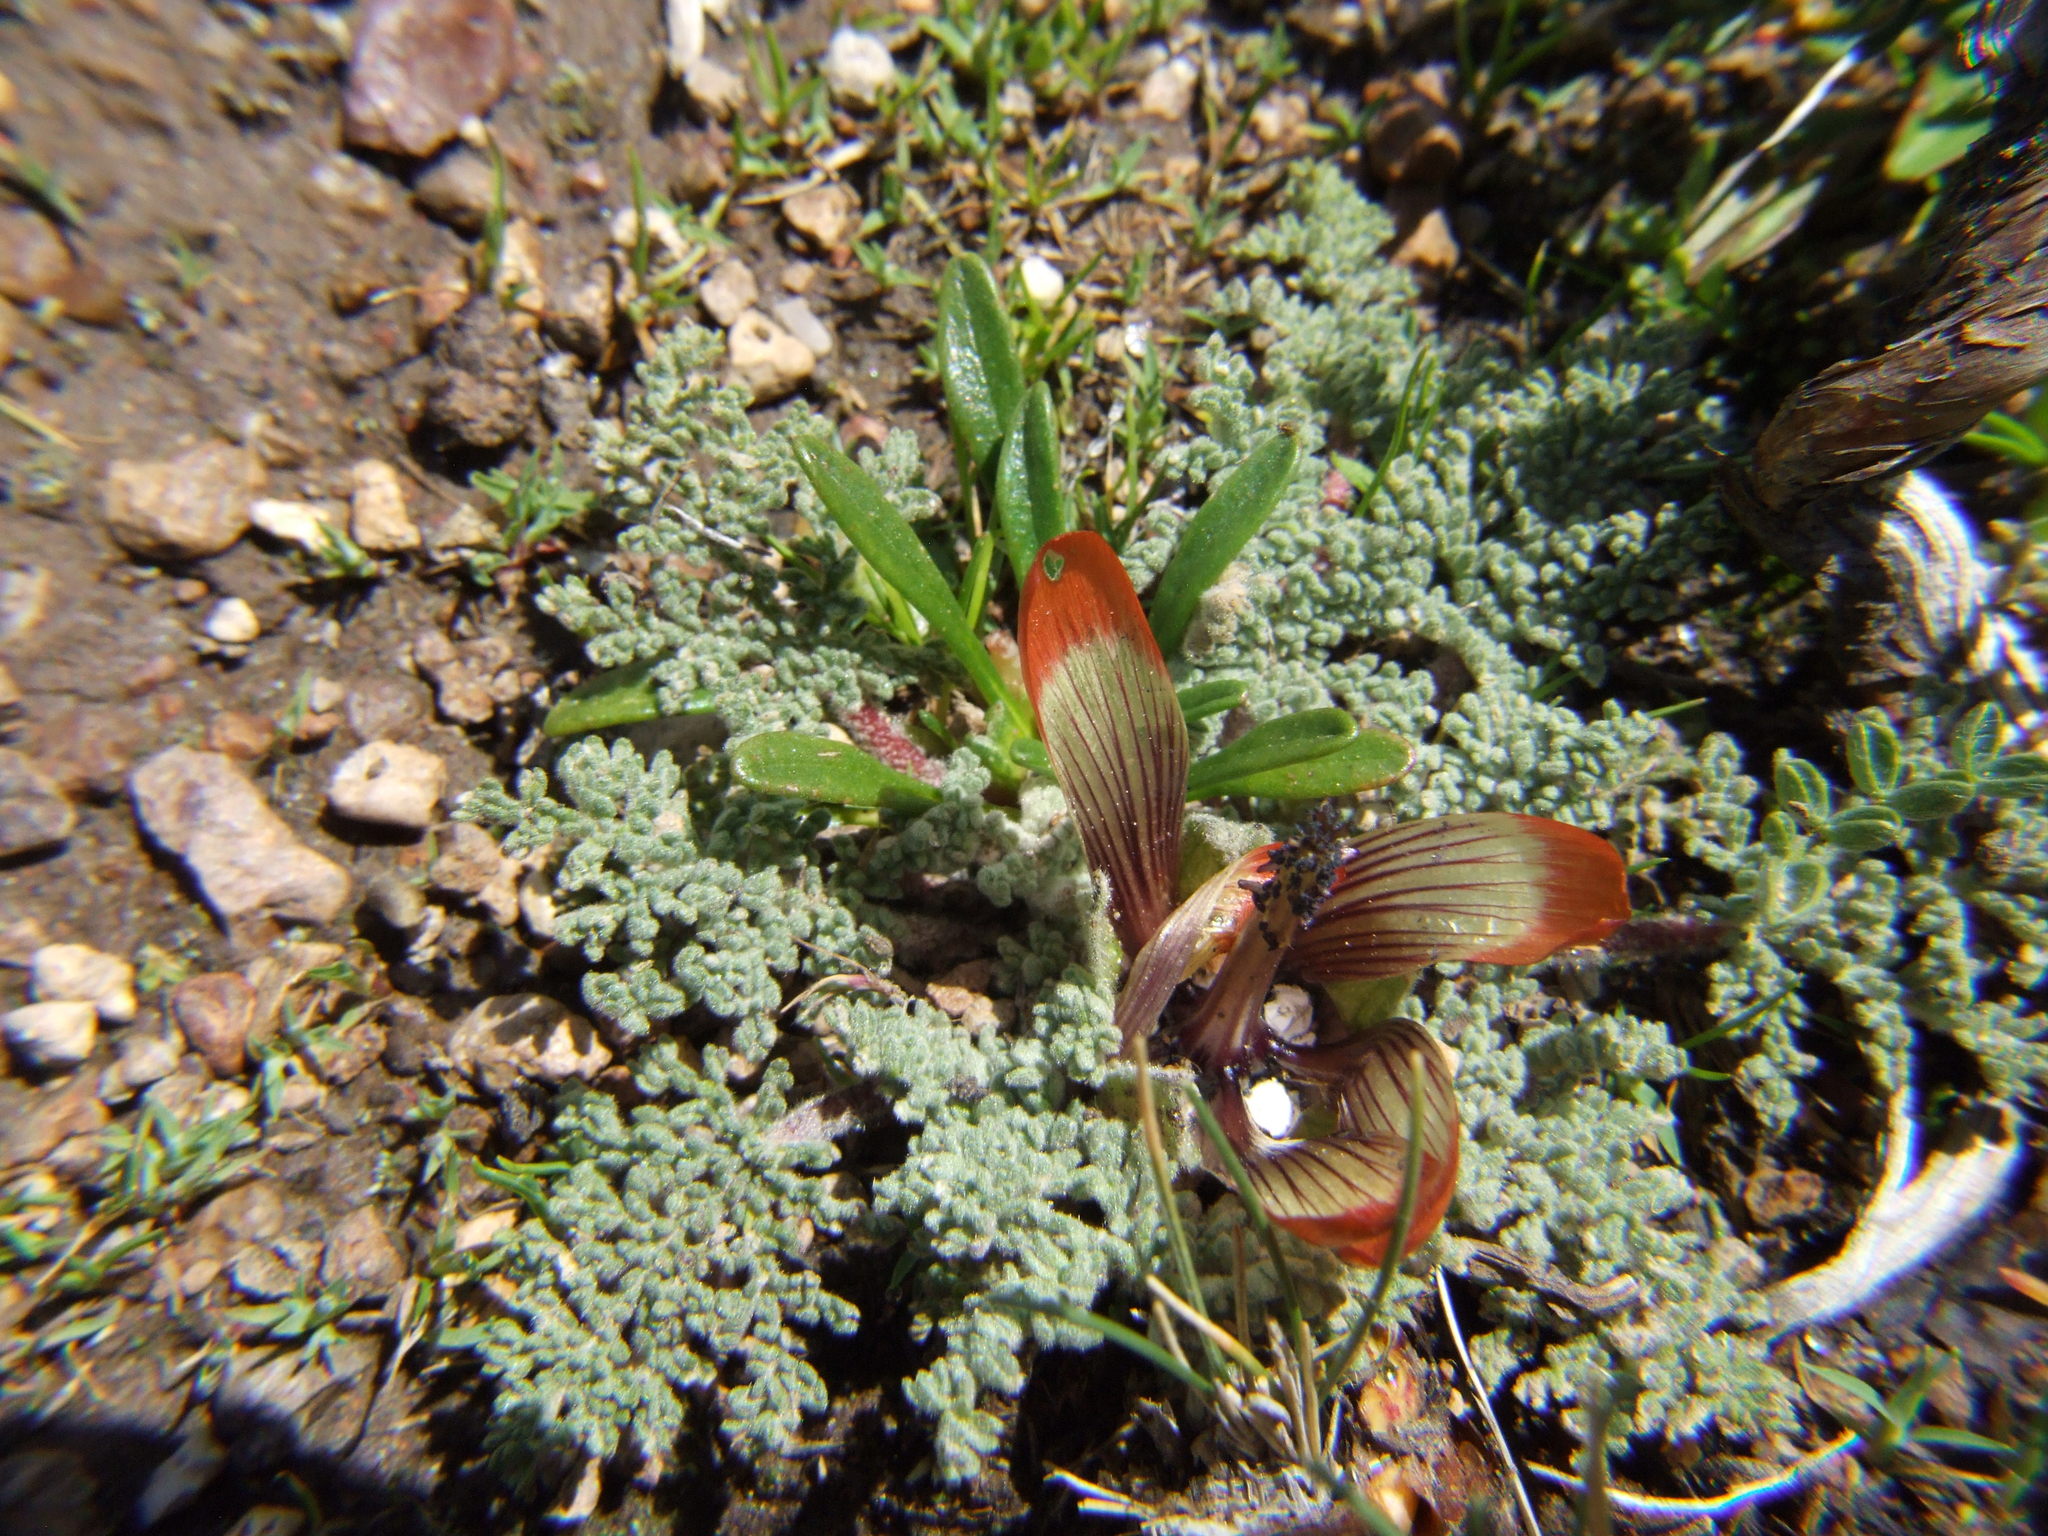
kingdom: Plantae
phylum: Tracheophyta
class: Magnoliopsida
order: Malvales
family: Malvaceae
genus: Nototriche
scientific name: Nototriche pediculariifolia
